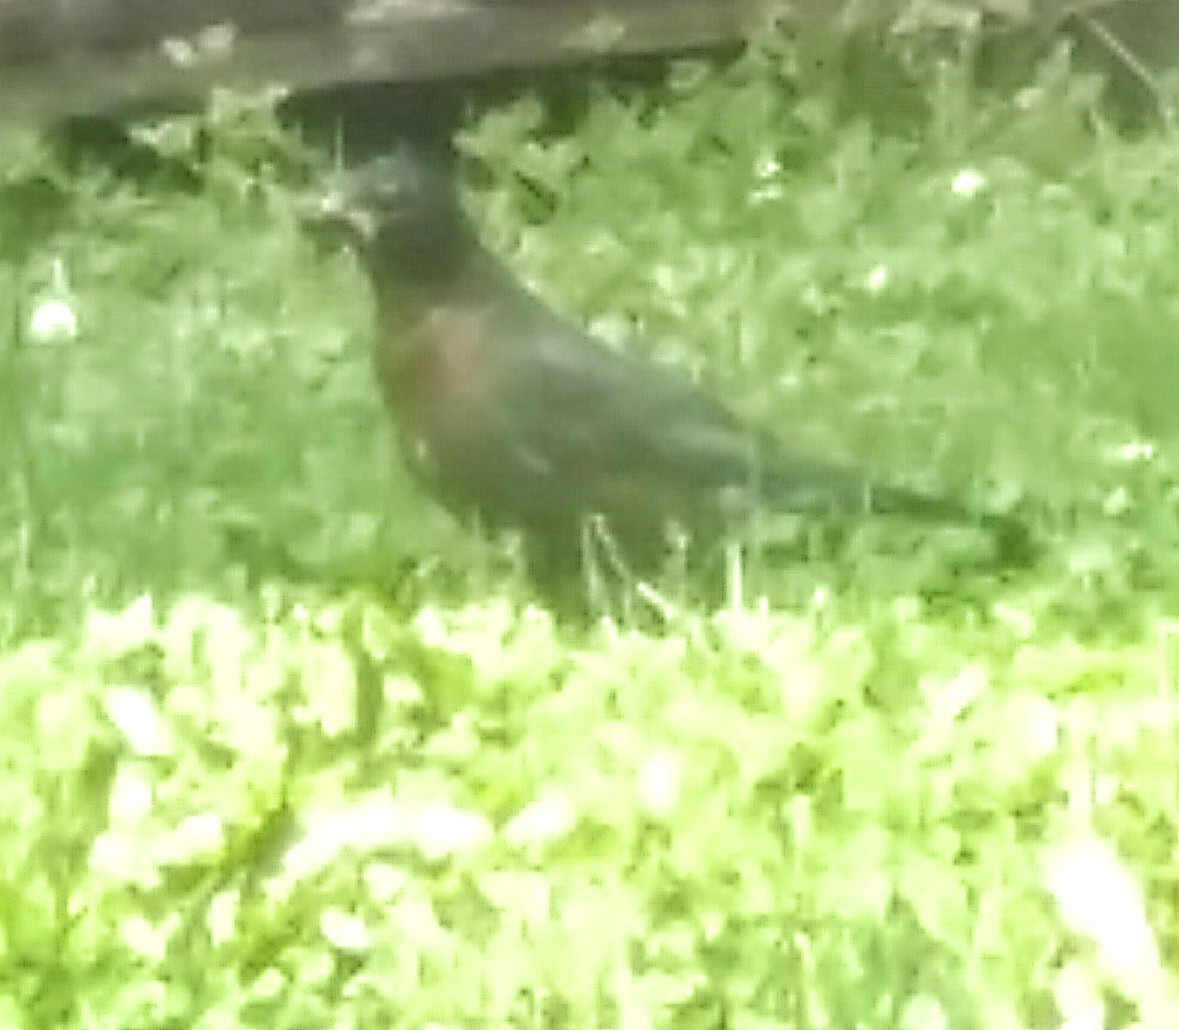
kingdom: Animalia
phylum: Chordata
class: Aves
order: Passeriformes
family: Turdidae
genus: Turdus
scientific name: Turdus migratorius
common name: American robin
